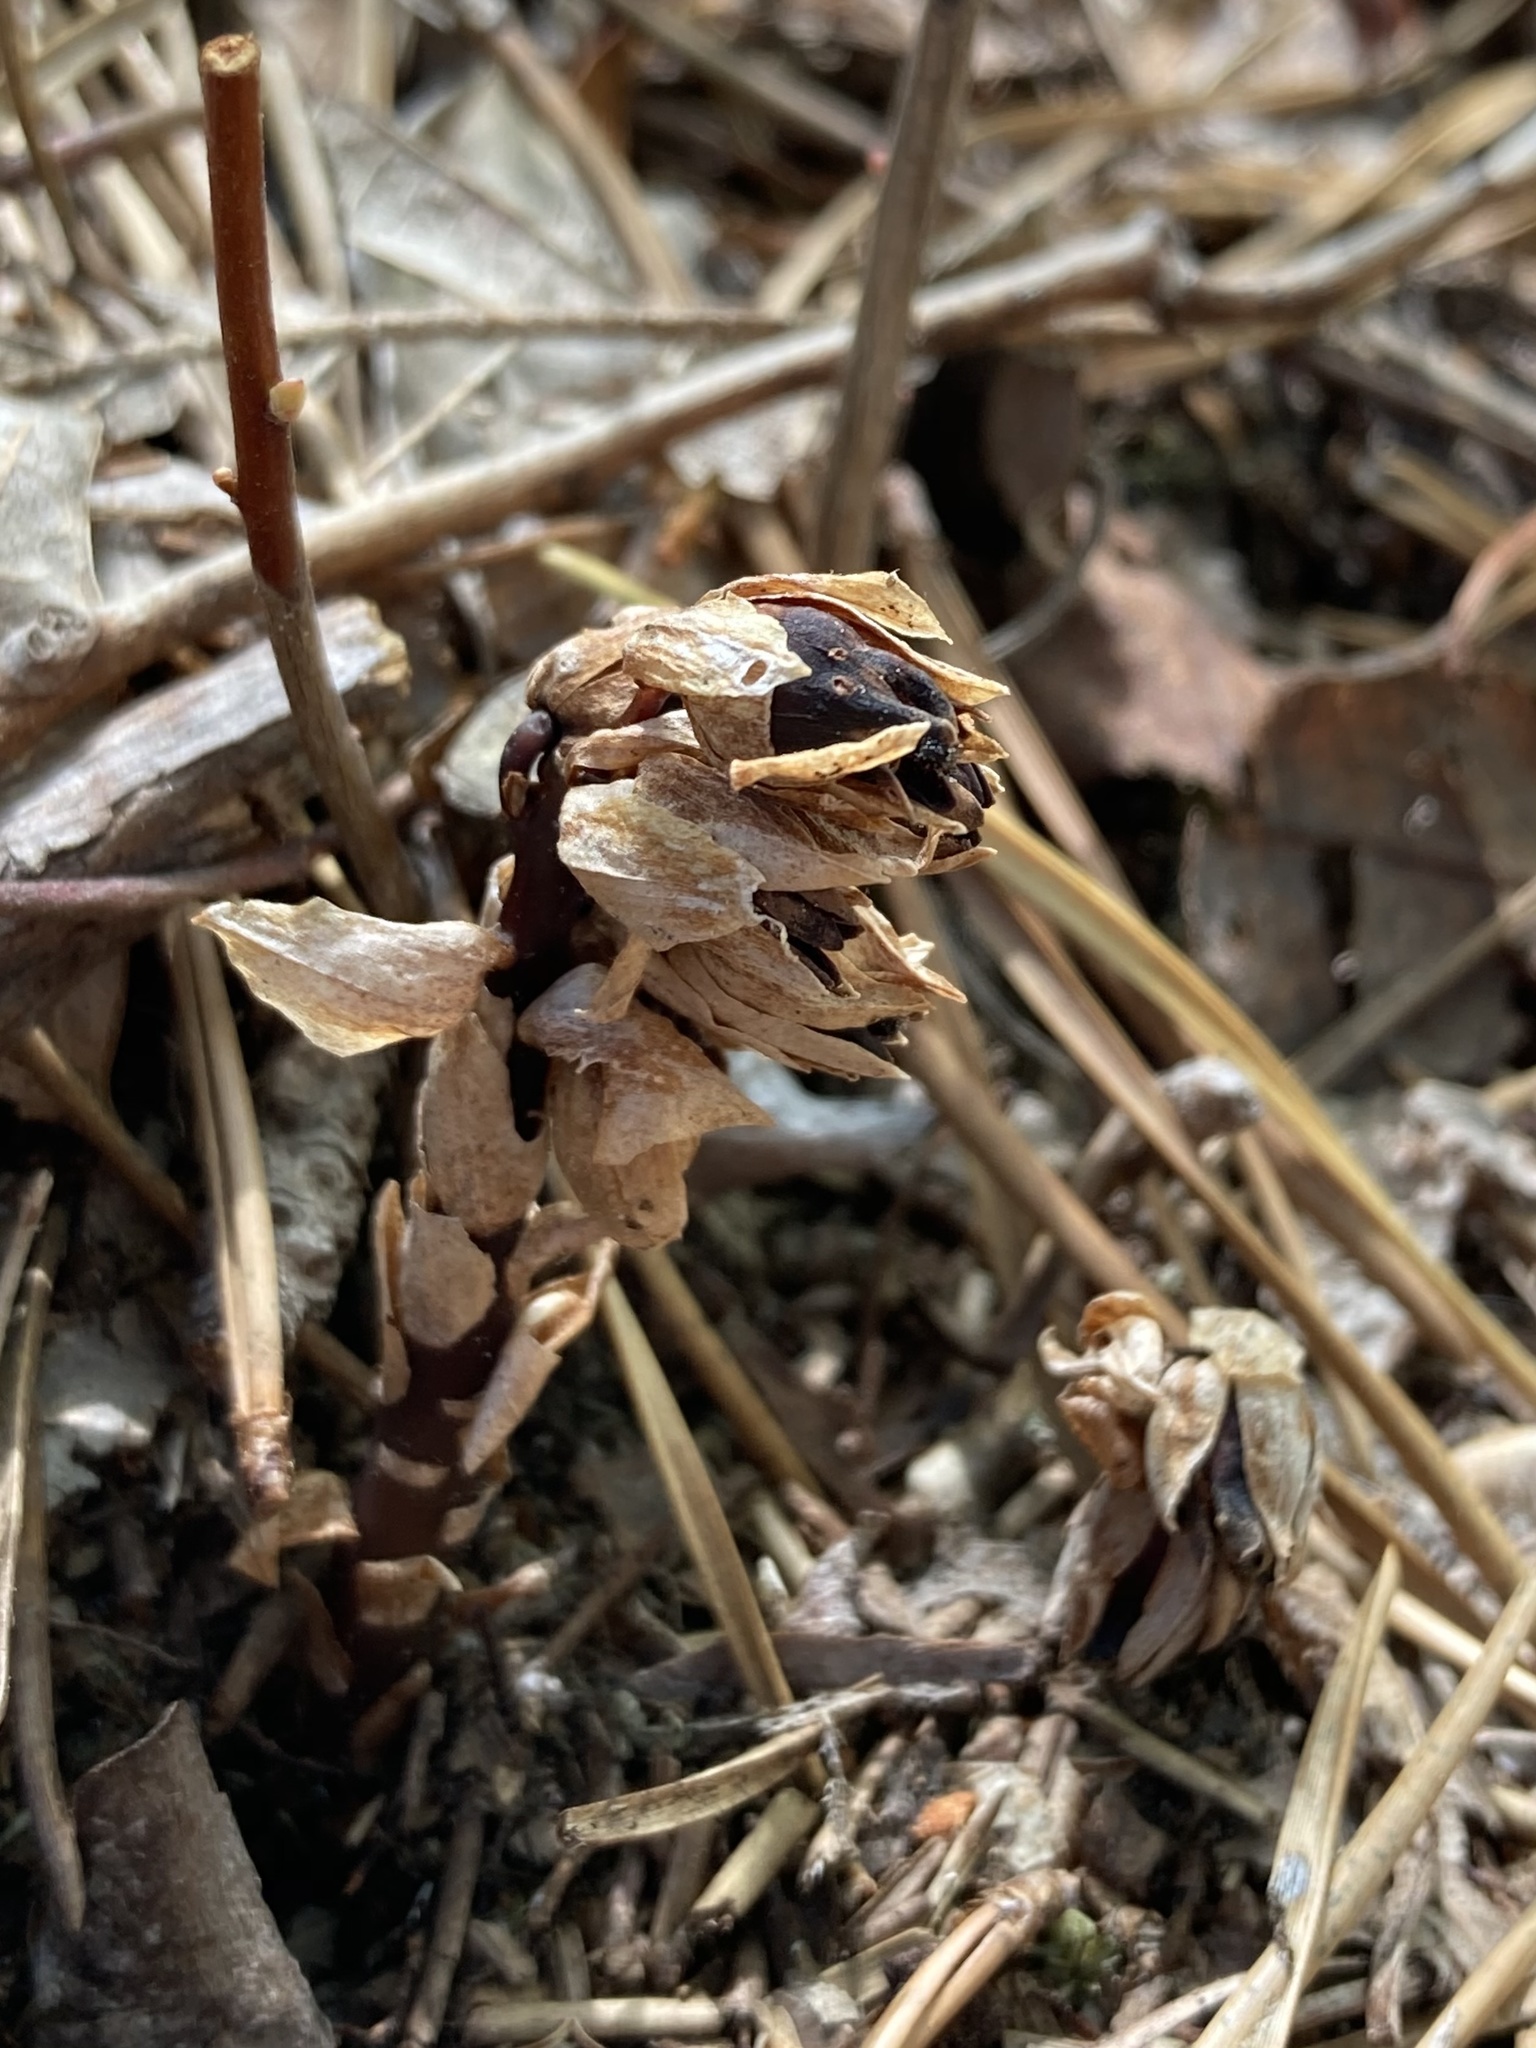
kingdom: Plantae
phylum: Tracheophyta
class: Magnoliopsida
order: Ericales
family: Ericaceae
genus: Monotropsis
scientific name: Monotropsis odorata
